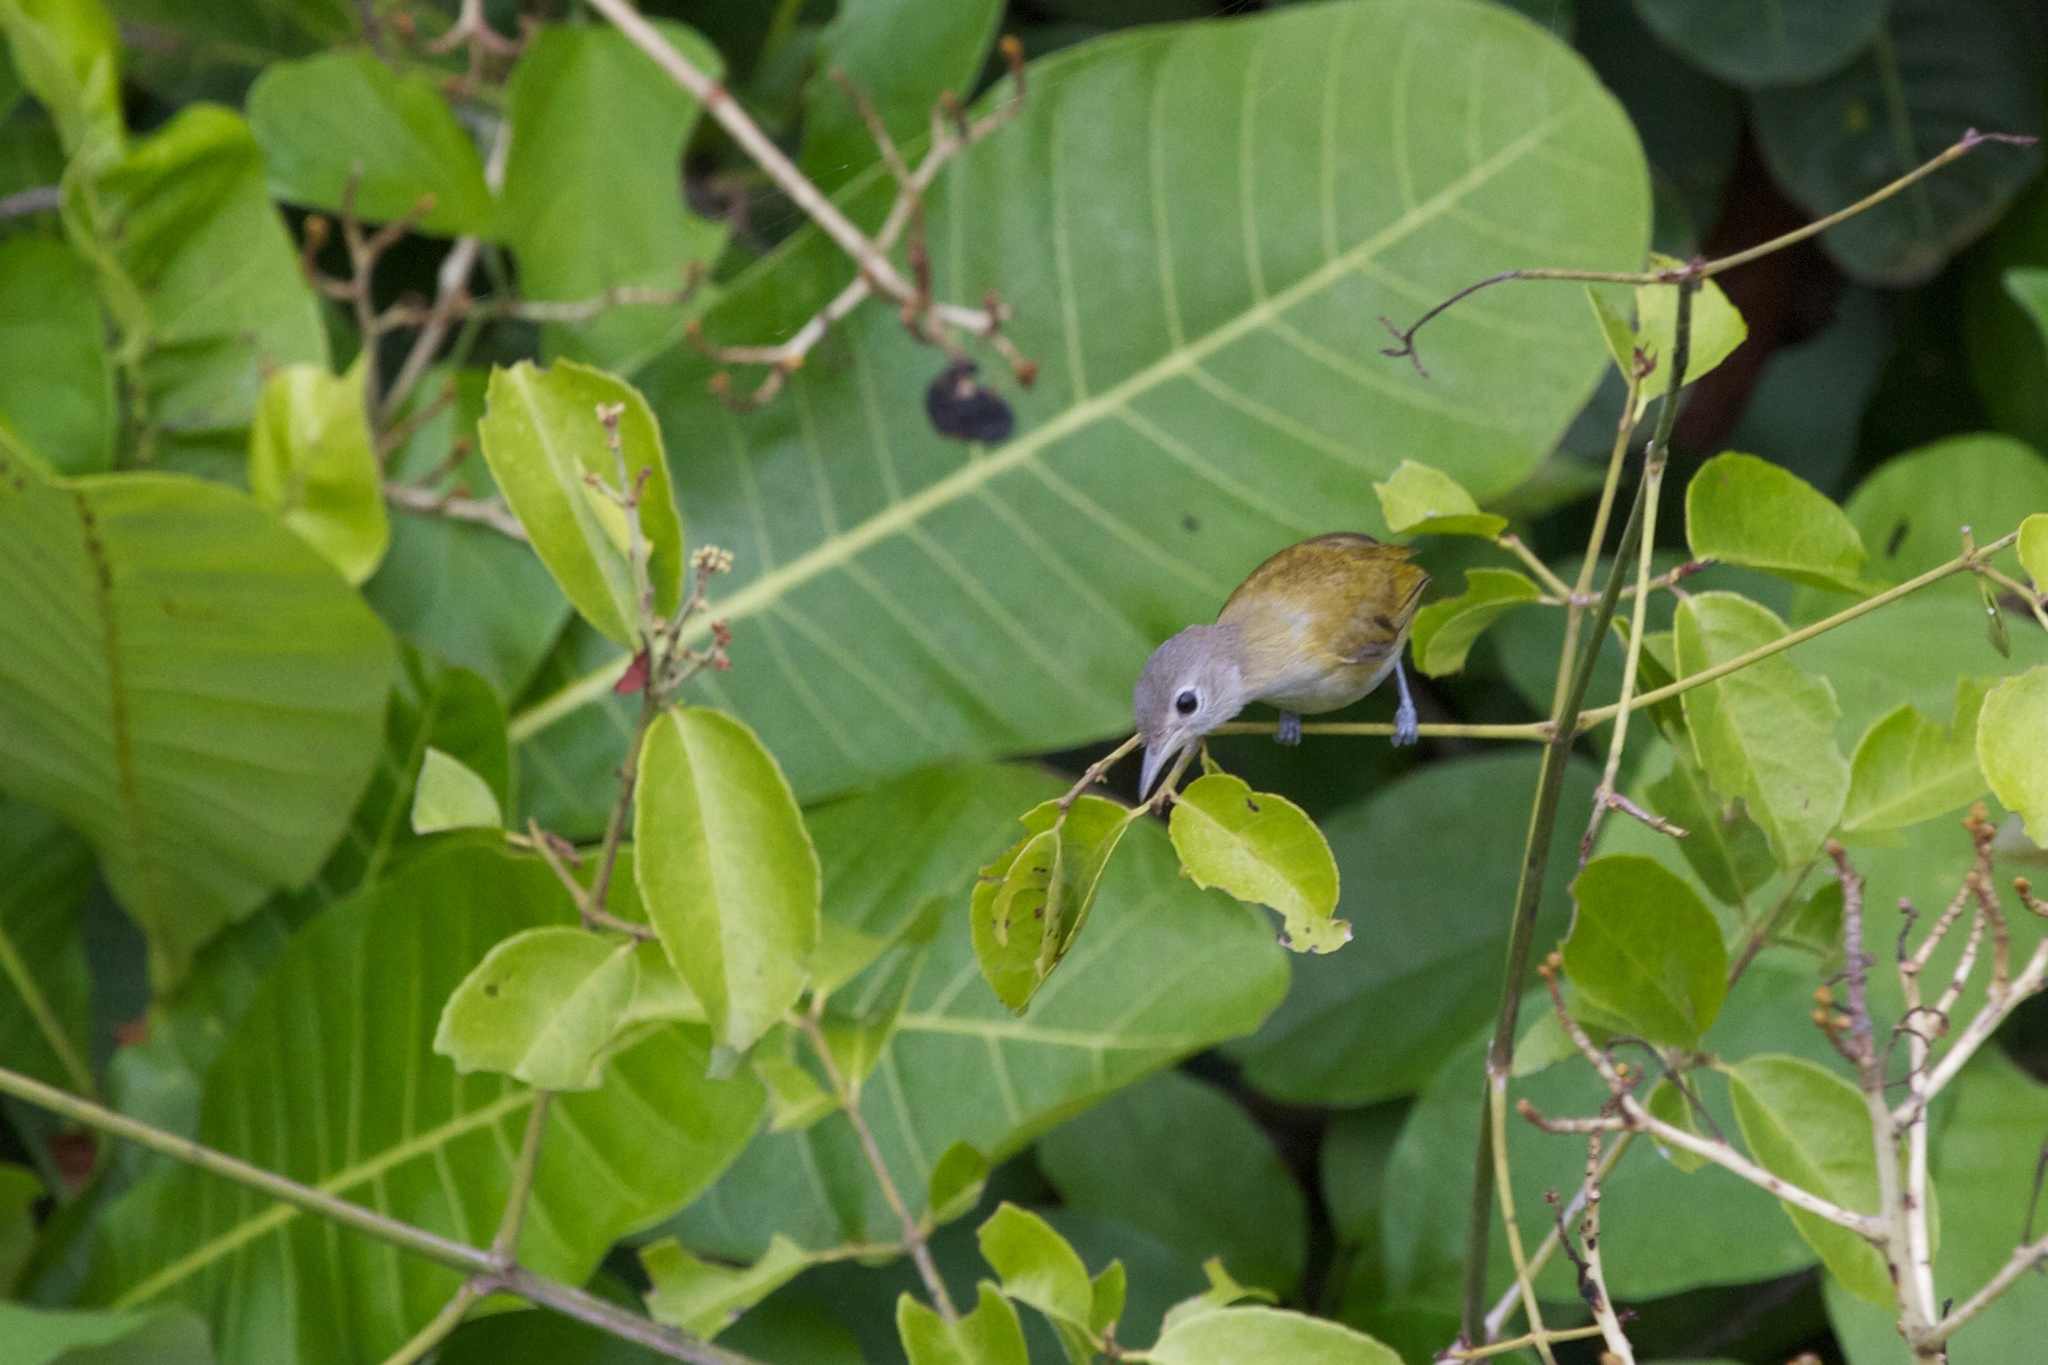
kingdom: Animalia
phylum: Chordata
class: Aves
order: Passeriformes
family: Vireonidae
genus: Hylophilus
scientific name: Hylophilus decurtatus
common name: Lesser greenlet
